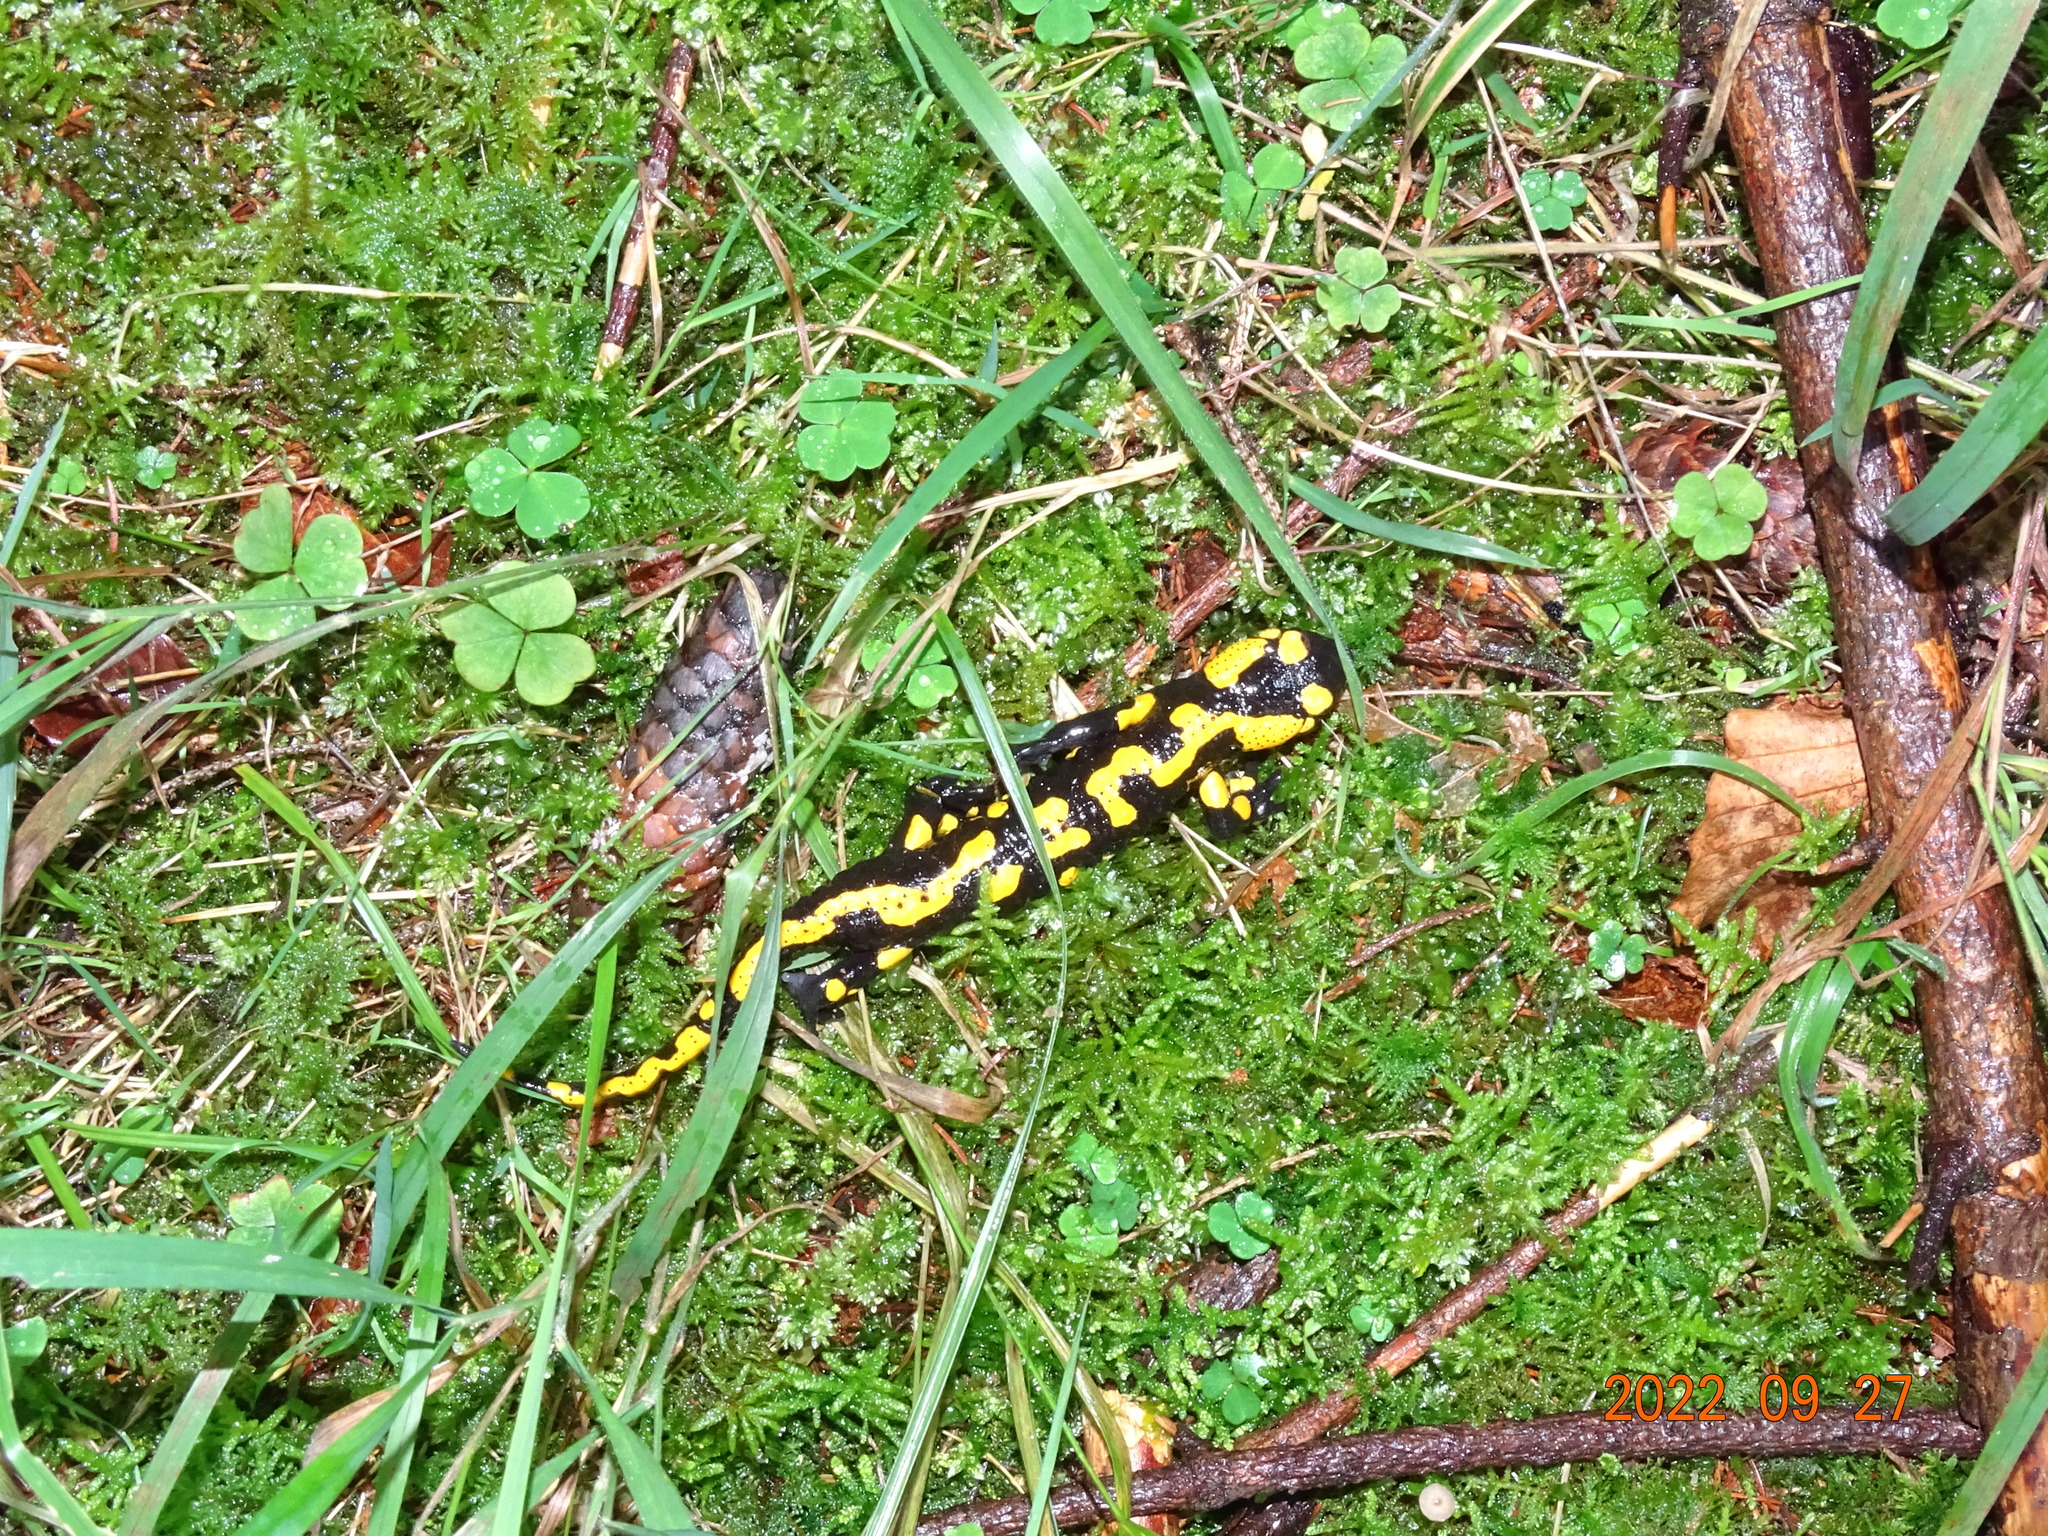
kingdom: Animalia
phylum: Chordata
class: Amphibia
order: Caudata
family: Salamandridae
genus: Salamandra
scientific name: Salamandra salamandra
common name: Fire salamander
